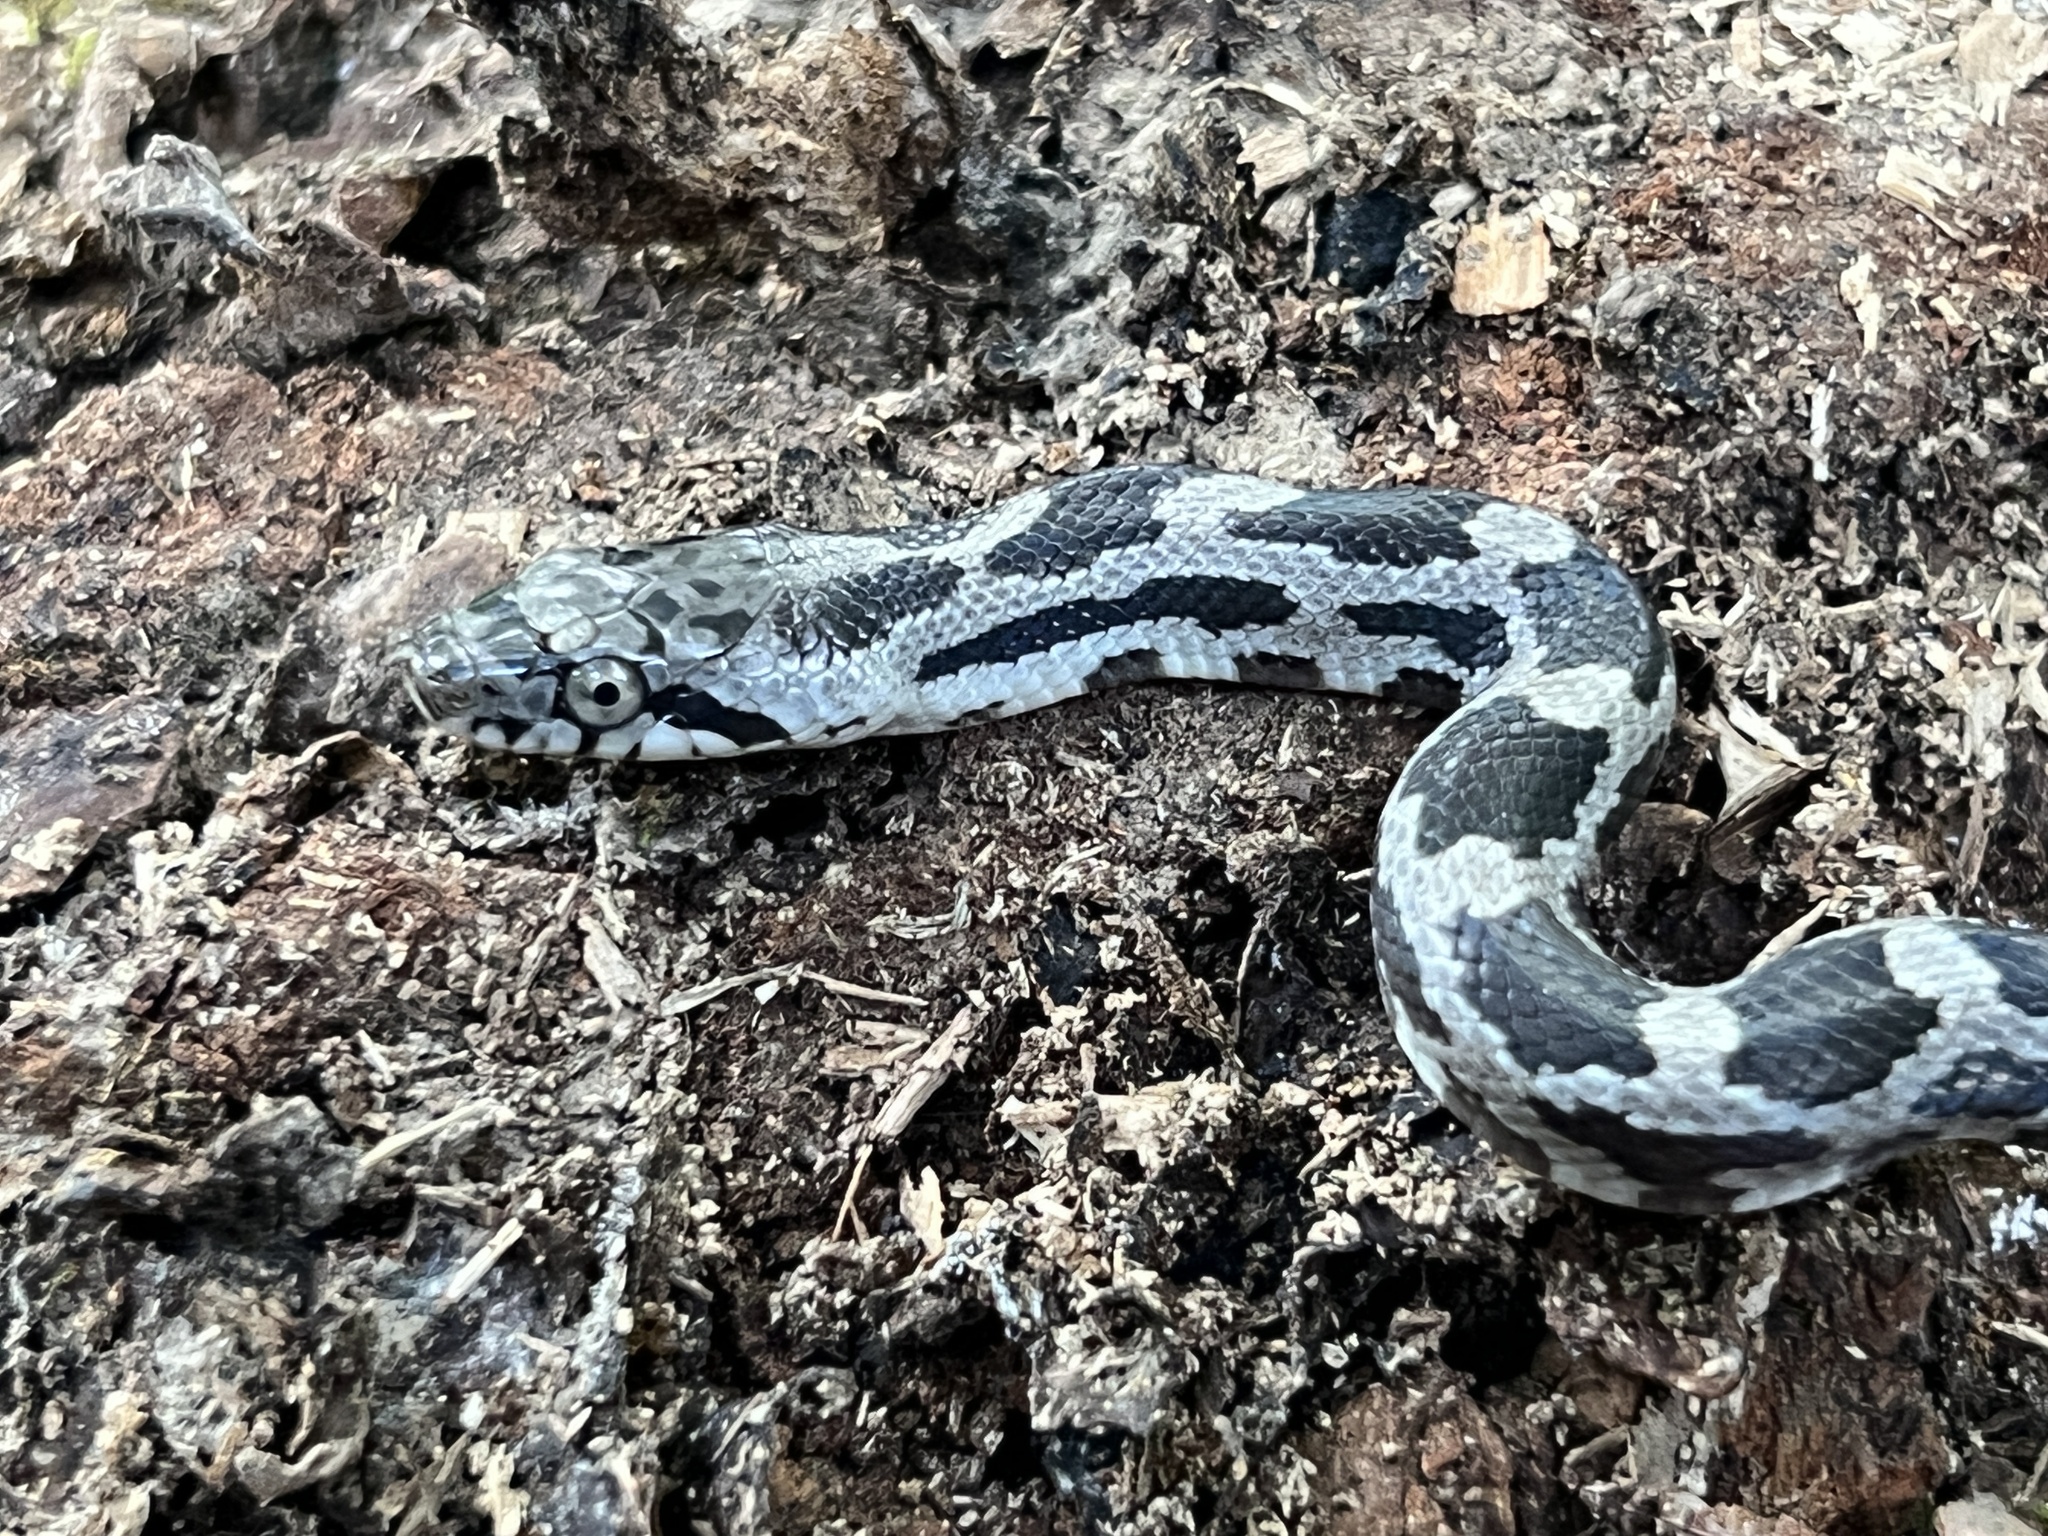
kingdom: Animalia
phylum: Chordata
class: Squamata
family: Colubridae
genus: Pantherophis
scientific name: Pantherophis spiloides
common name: Gray rat snake
